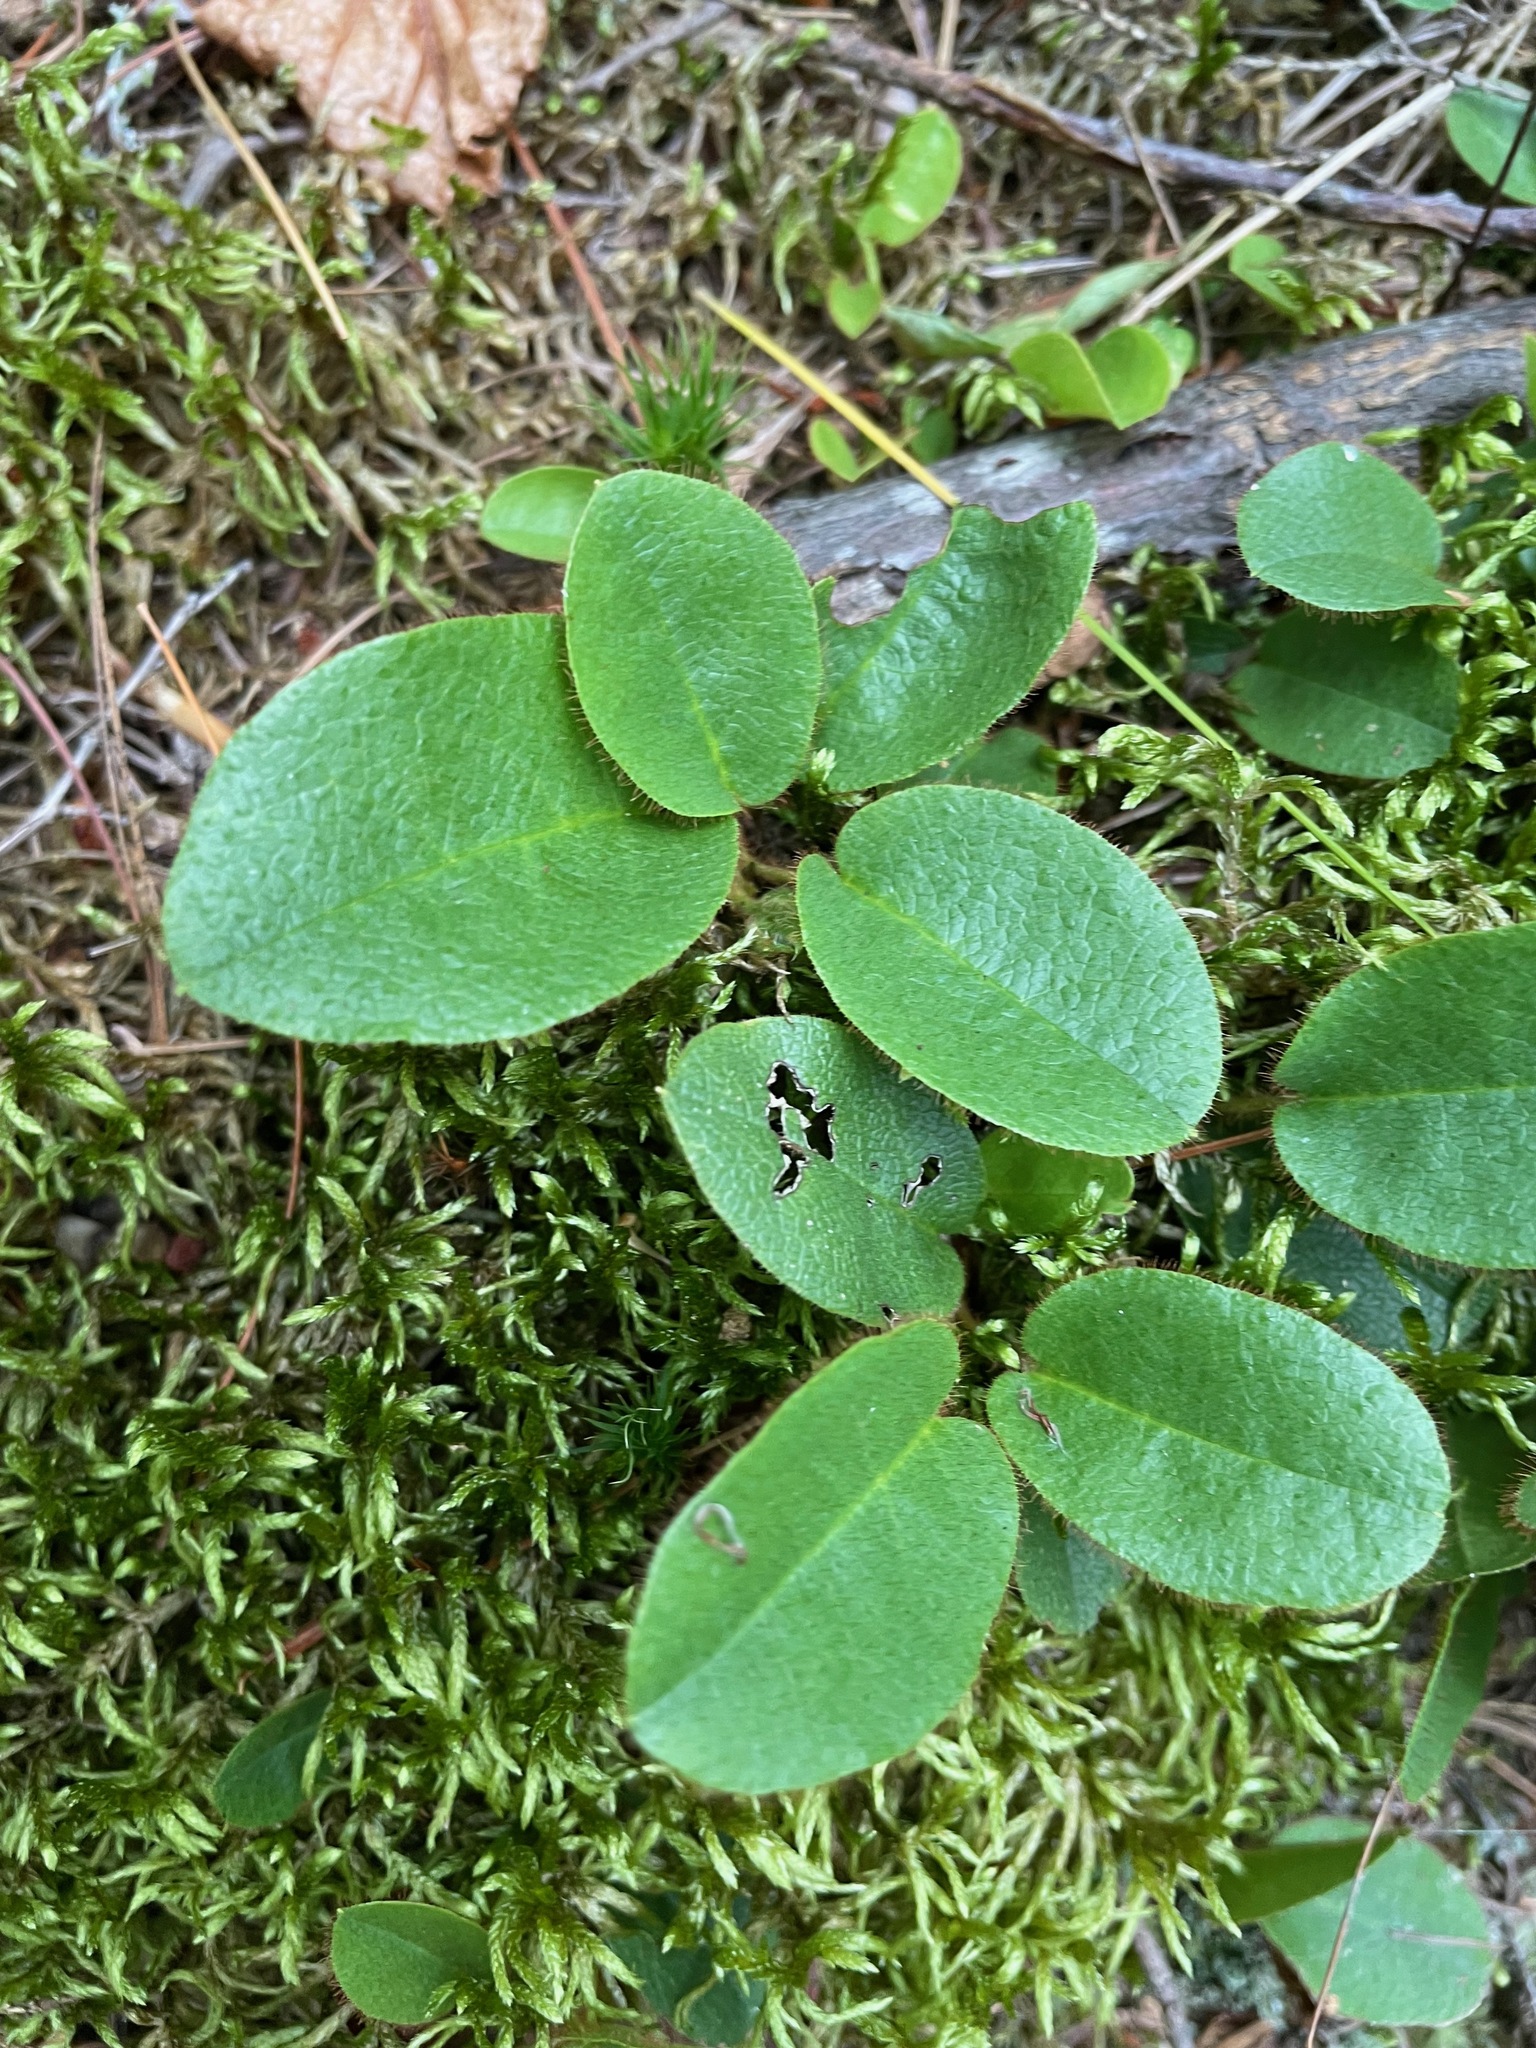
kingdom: Plantae
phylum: Tracheophyta
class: Magnoliopsida
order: Ericales
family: Ericaceae
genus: Epigaea
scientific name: Epigaea repens
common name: Gravelroot
